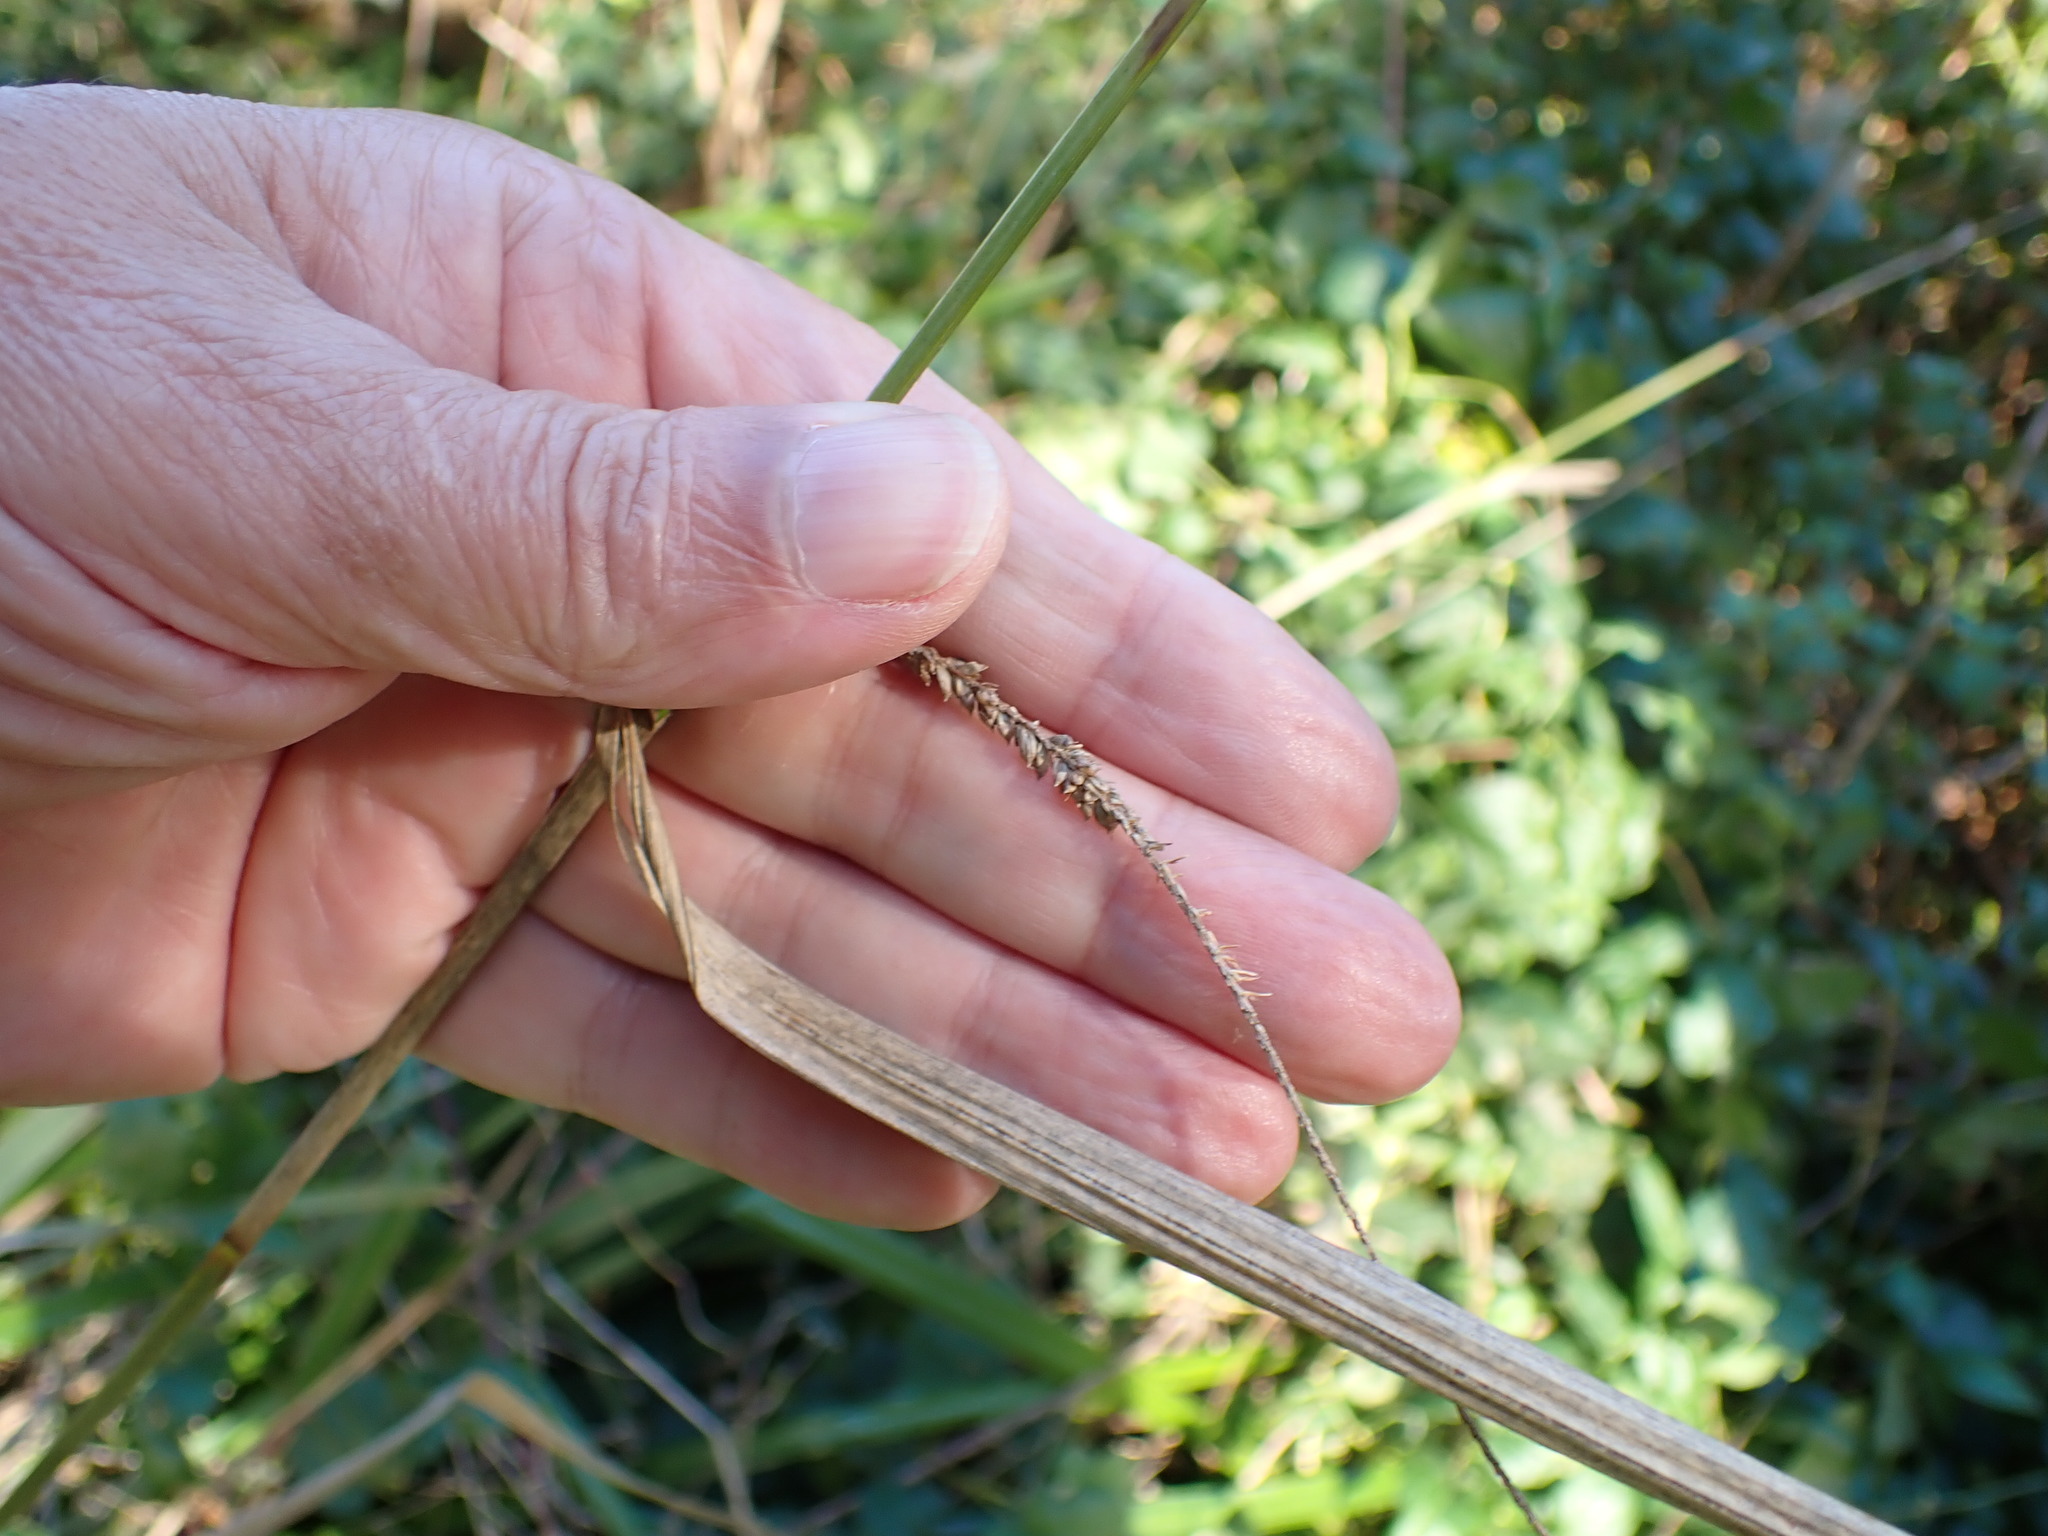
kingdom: Plantae
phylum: Tracheophyta
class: Liliopsida
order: Poales
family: Cyperaceae
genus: Carex
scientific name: Carex pendula
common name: Pendulous sedge
